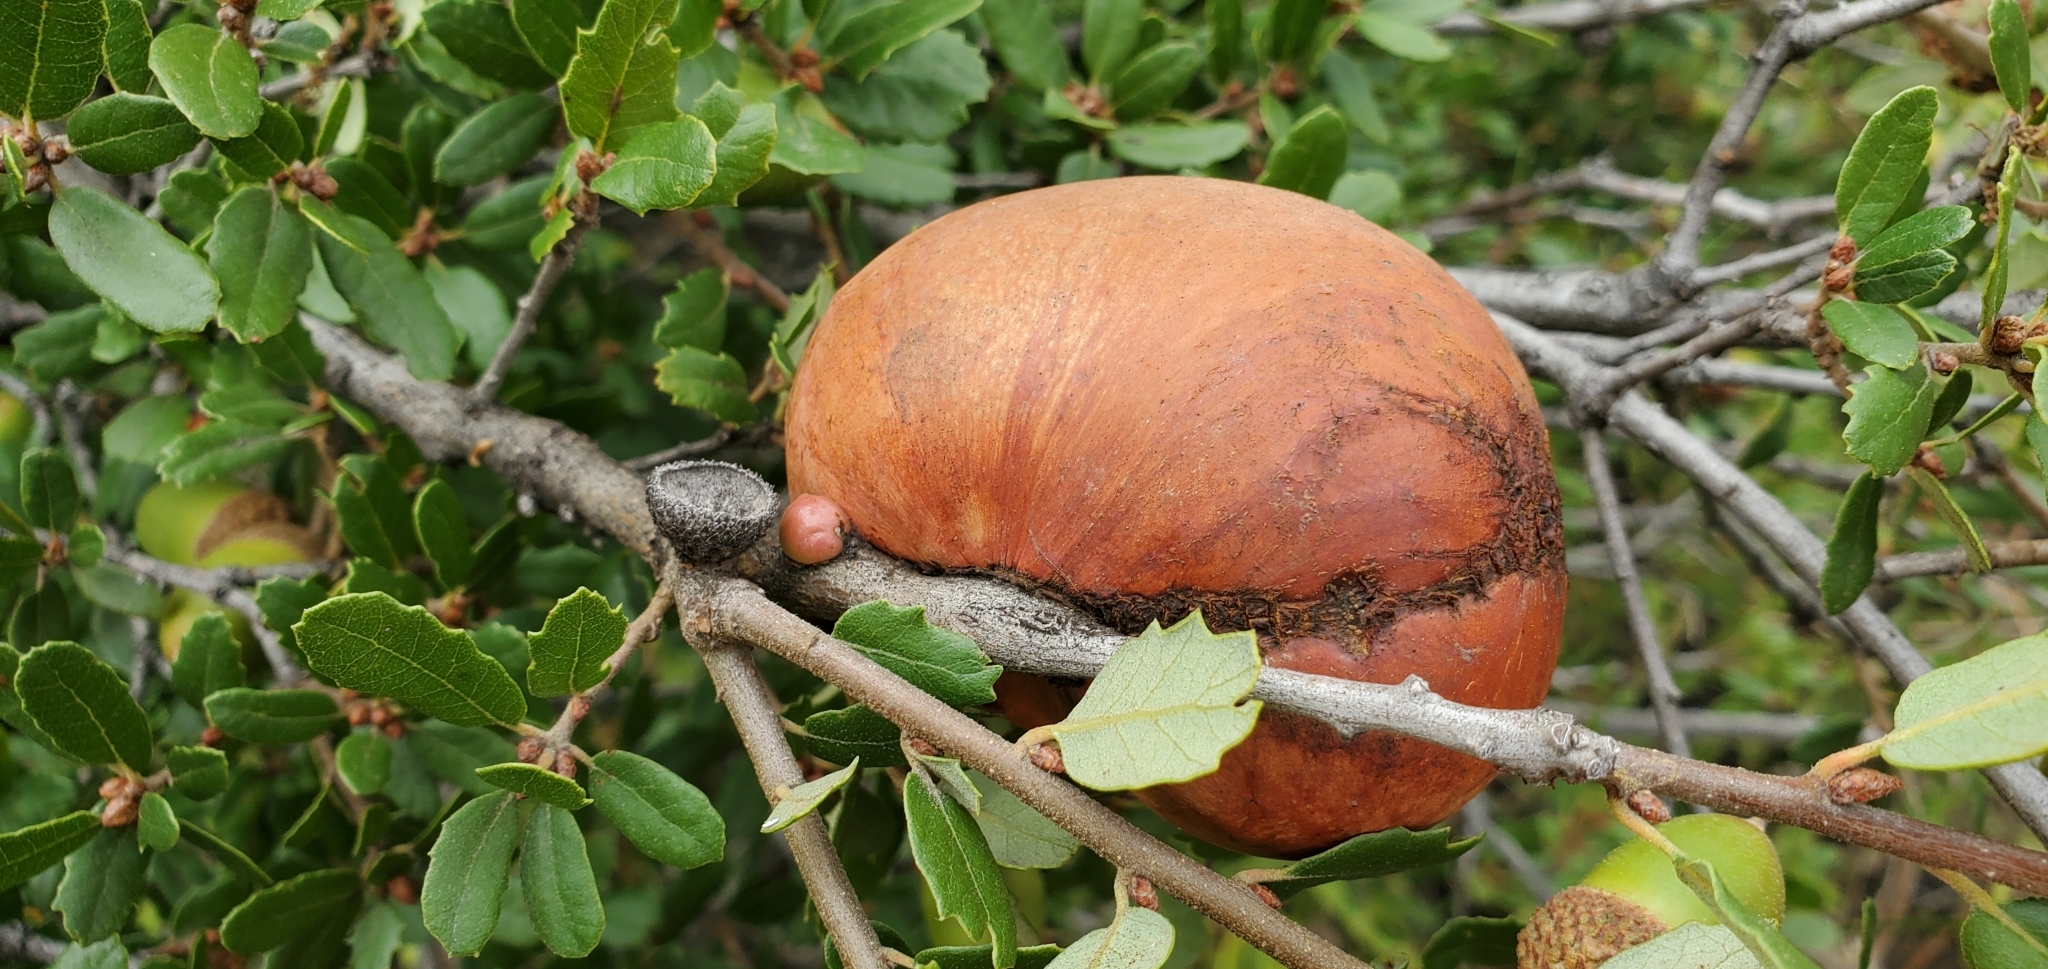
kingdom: Animalia
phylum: Arthropoda
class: Insecta
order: Hymenoptera
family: Cynipidae
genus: Andricus
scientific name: Andricus quercuscalifornicus
